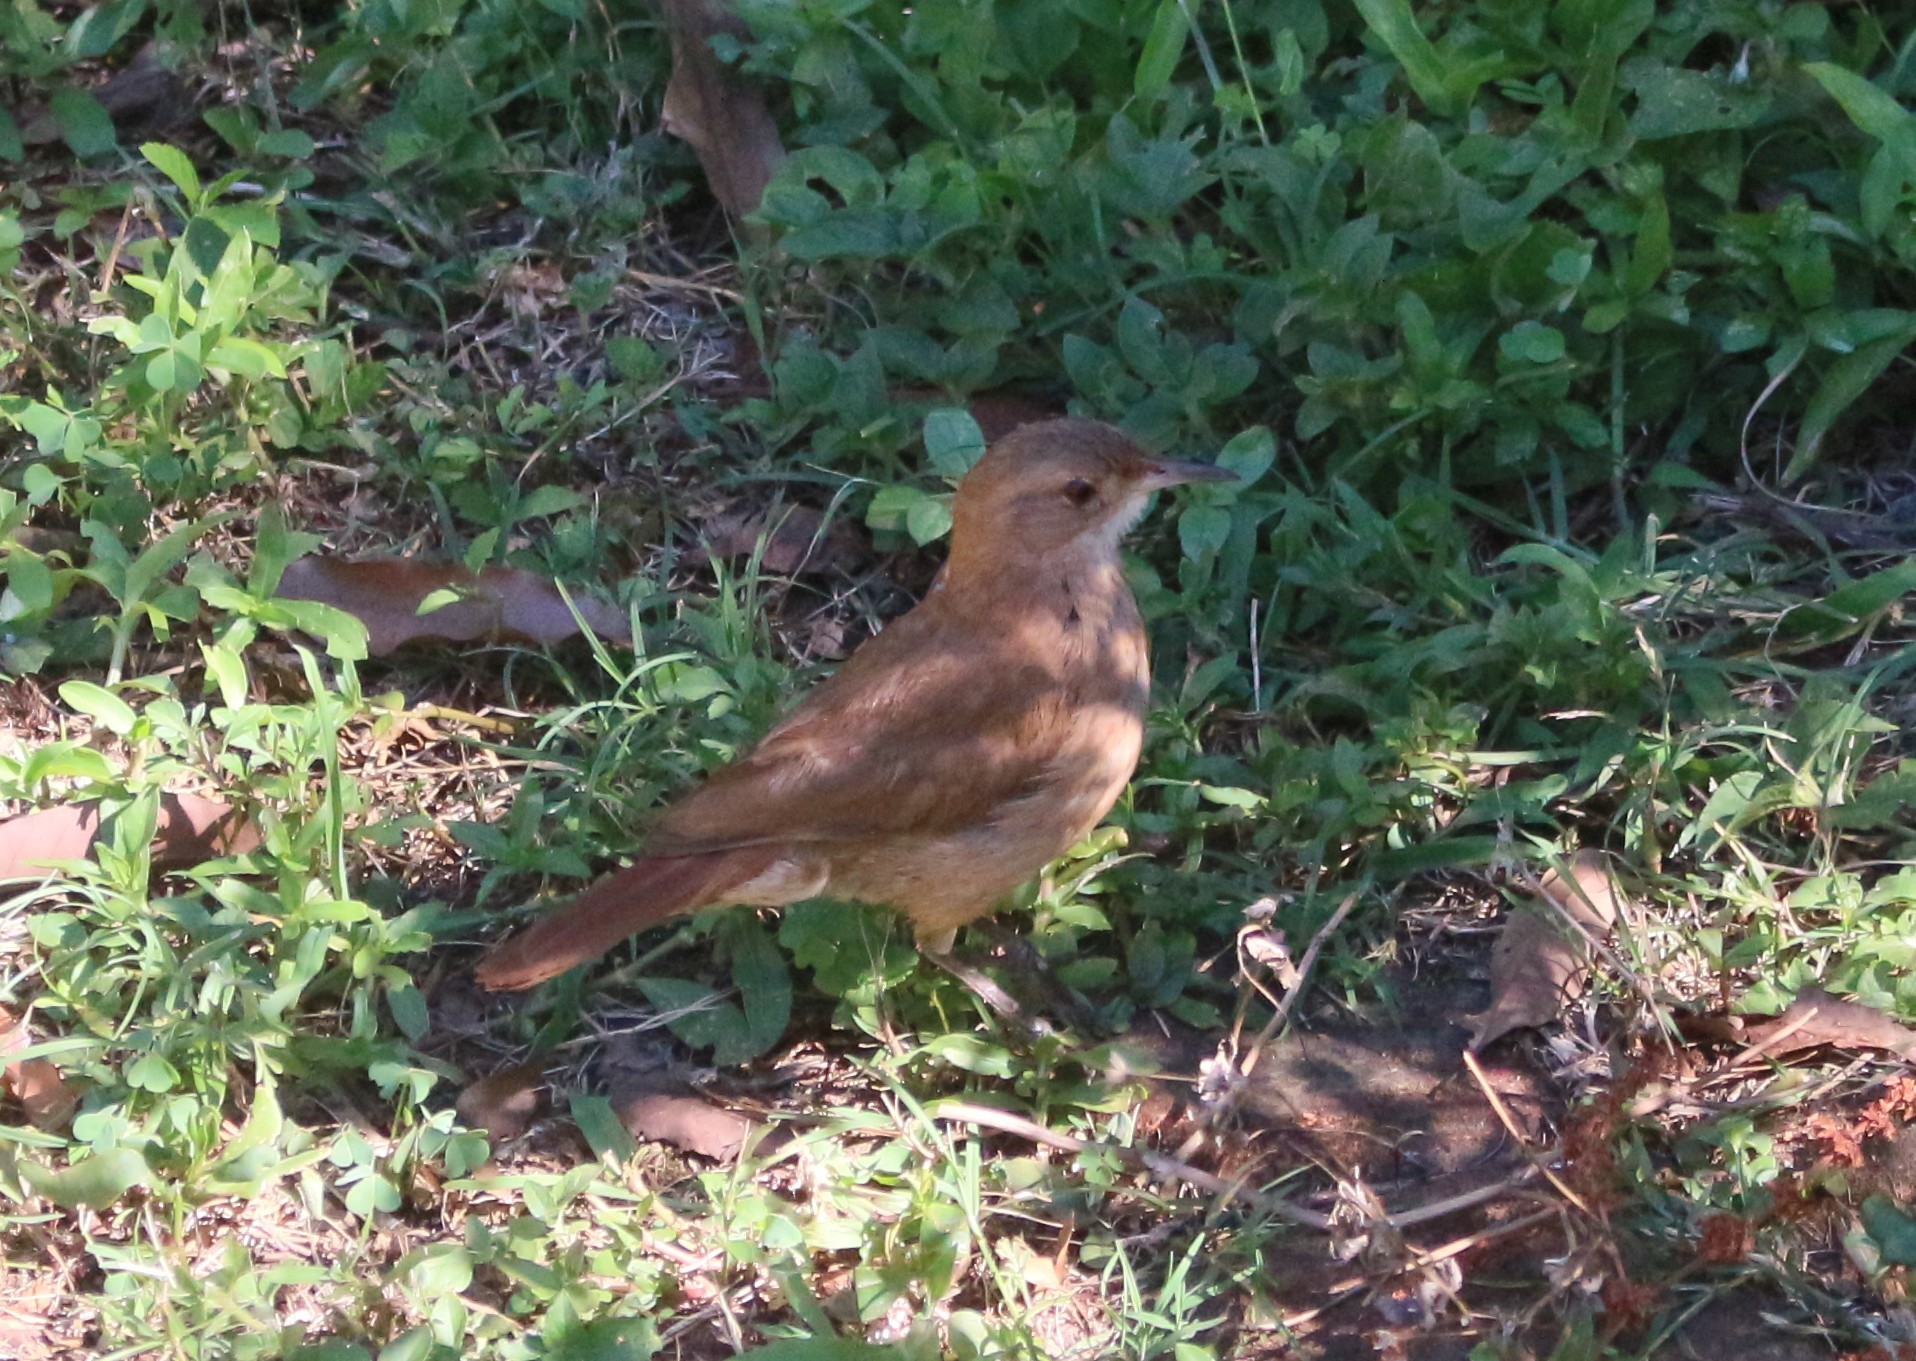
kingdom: Animalia
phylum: Chordata
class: Aves
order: Passeriformes
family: Furnariidae
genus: Furnarius
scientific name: Furnarius rufus
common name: Rufous hornero
